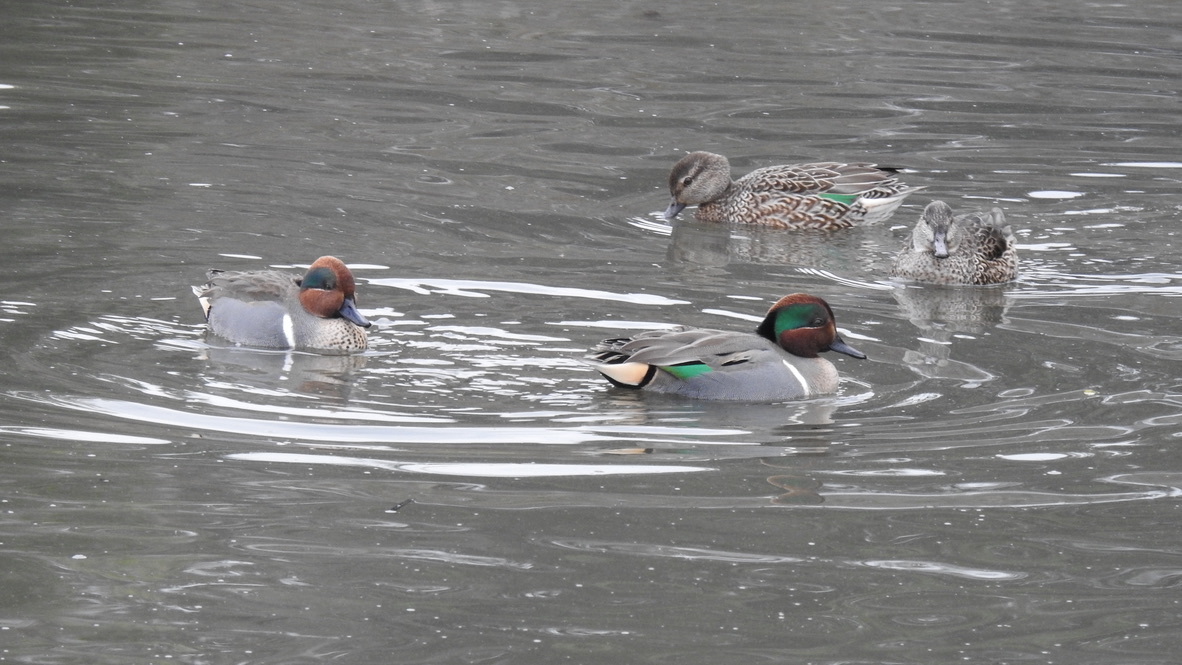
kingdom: Animalia
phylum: Chordata
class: Aves
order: Anseriformes
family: Anatidae
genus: Anas
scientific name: Anas crecca
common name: Eurasian teal
